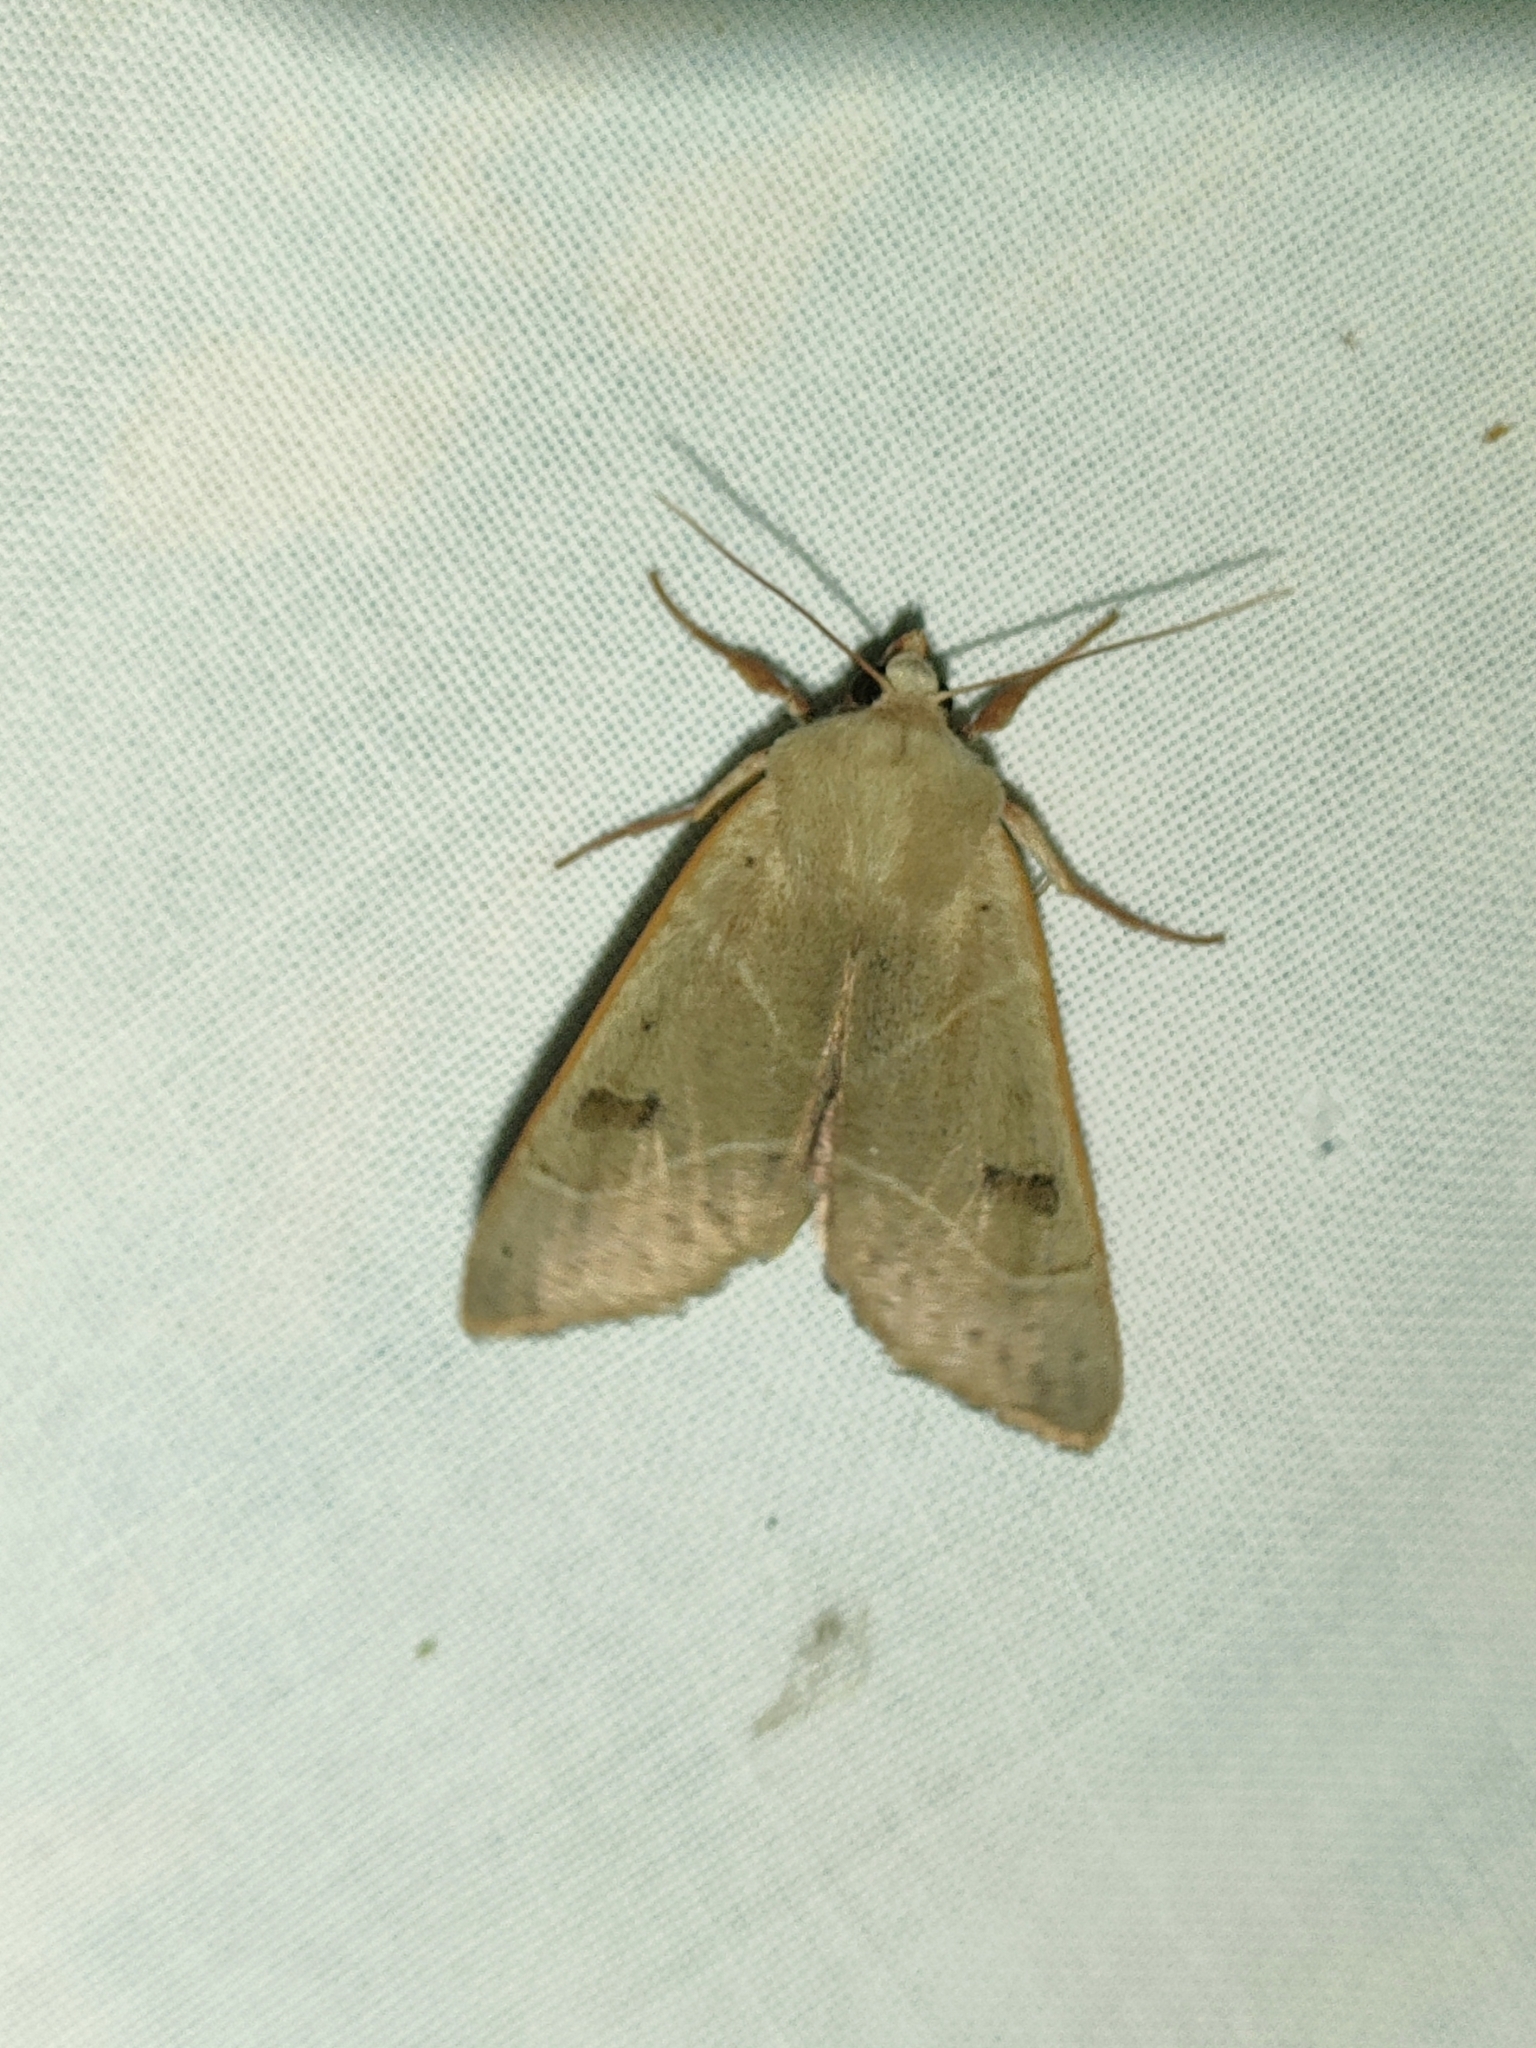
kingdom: Animalia
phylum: Arthropoda
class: Insecta
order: Lepidoptera
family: Noctuidae
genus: Pseudenargia
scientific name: Pseudenargia ulicis
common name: Berber
